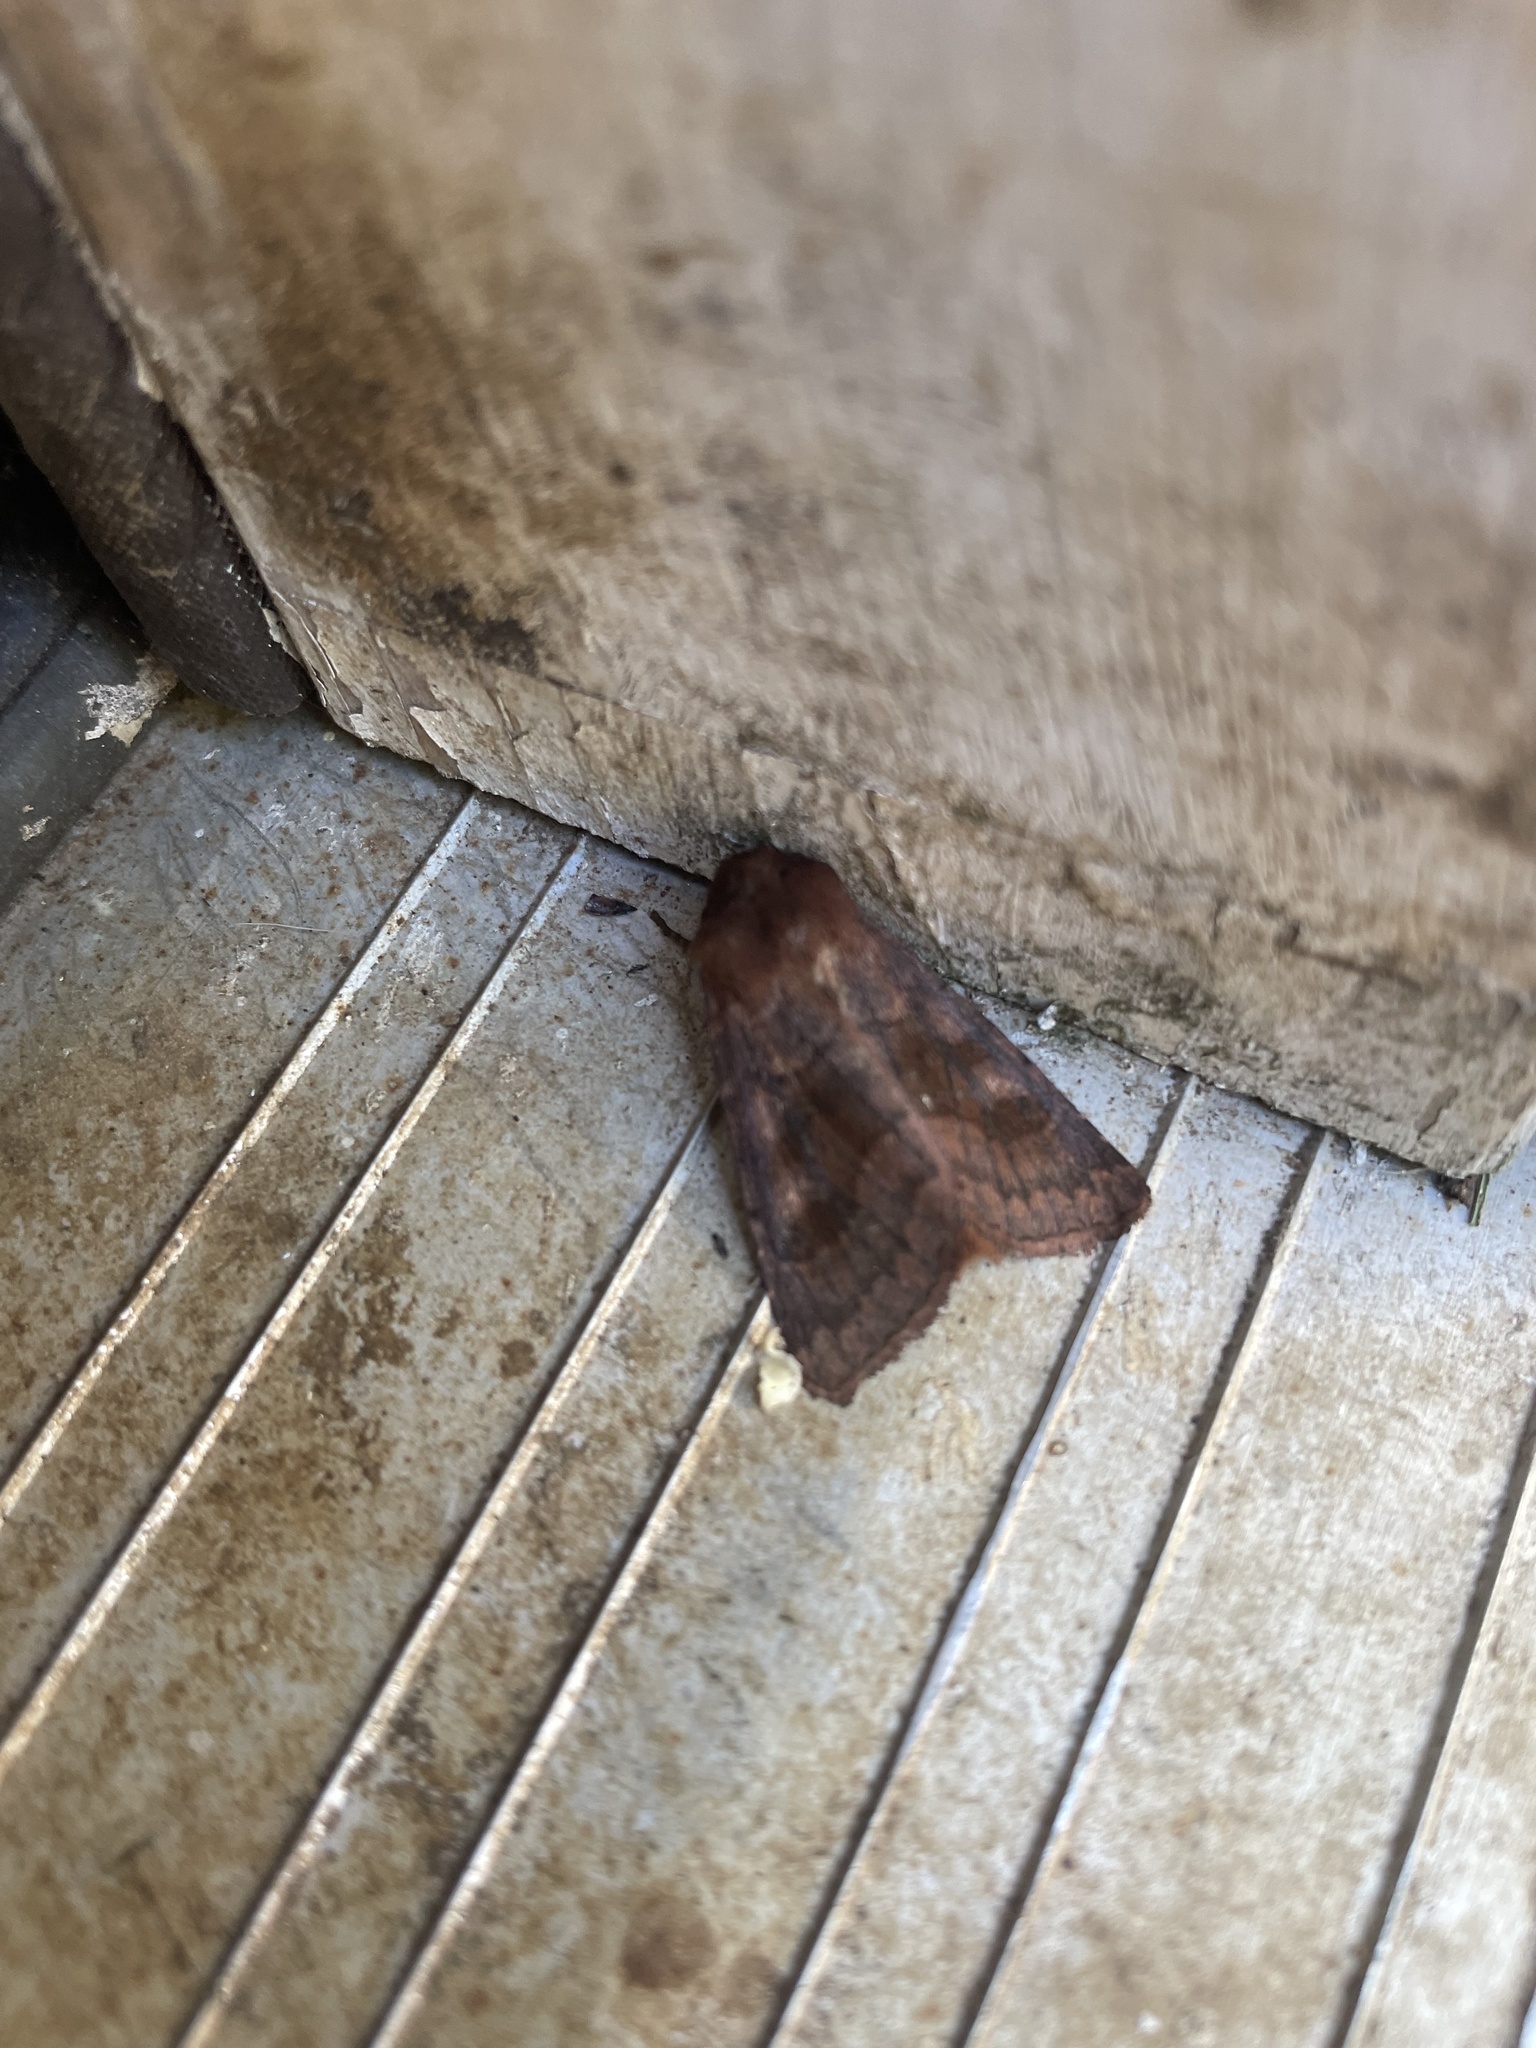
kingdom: Animalia
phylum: Arthropoda
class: Insecta
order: Lepidoptera
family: Noctuidae
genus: Nephelodes
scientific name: Nephelodes minians
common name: Bronzed cutworm
